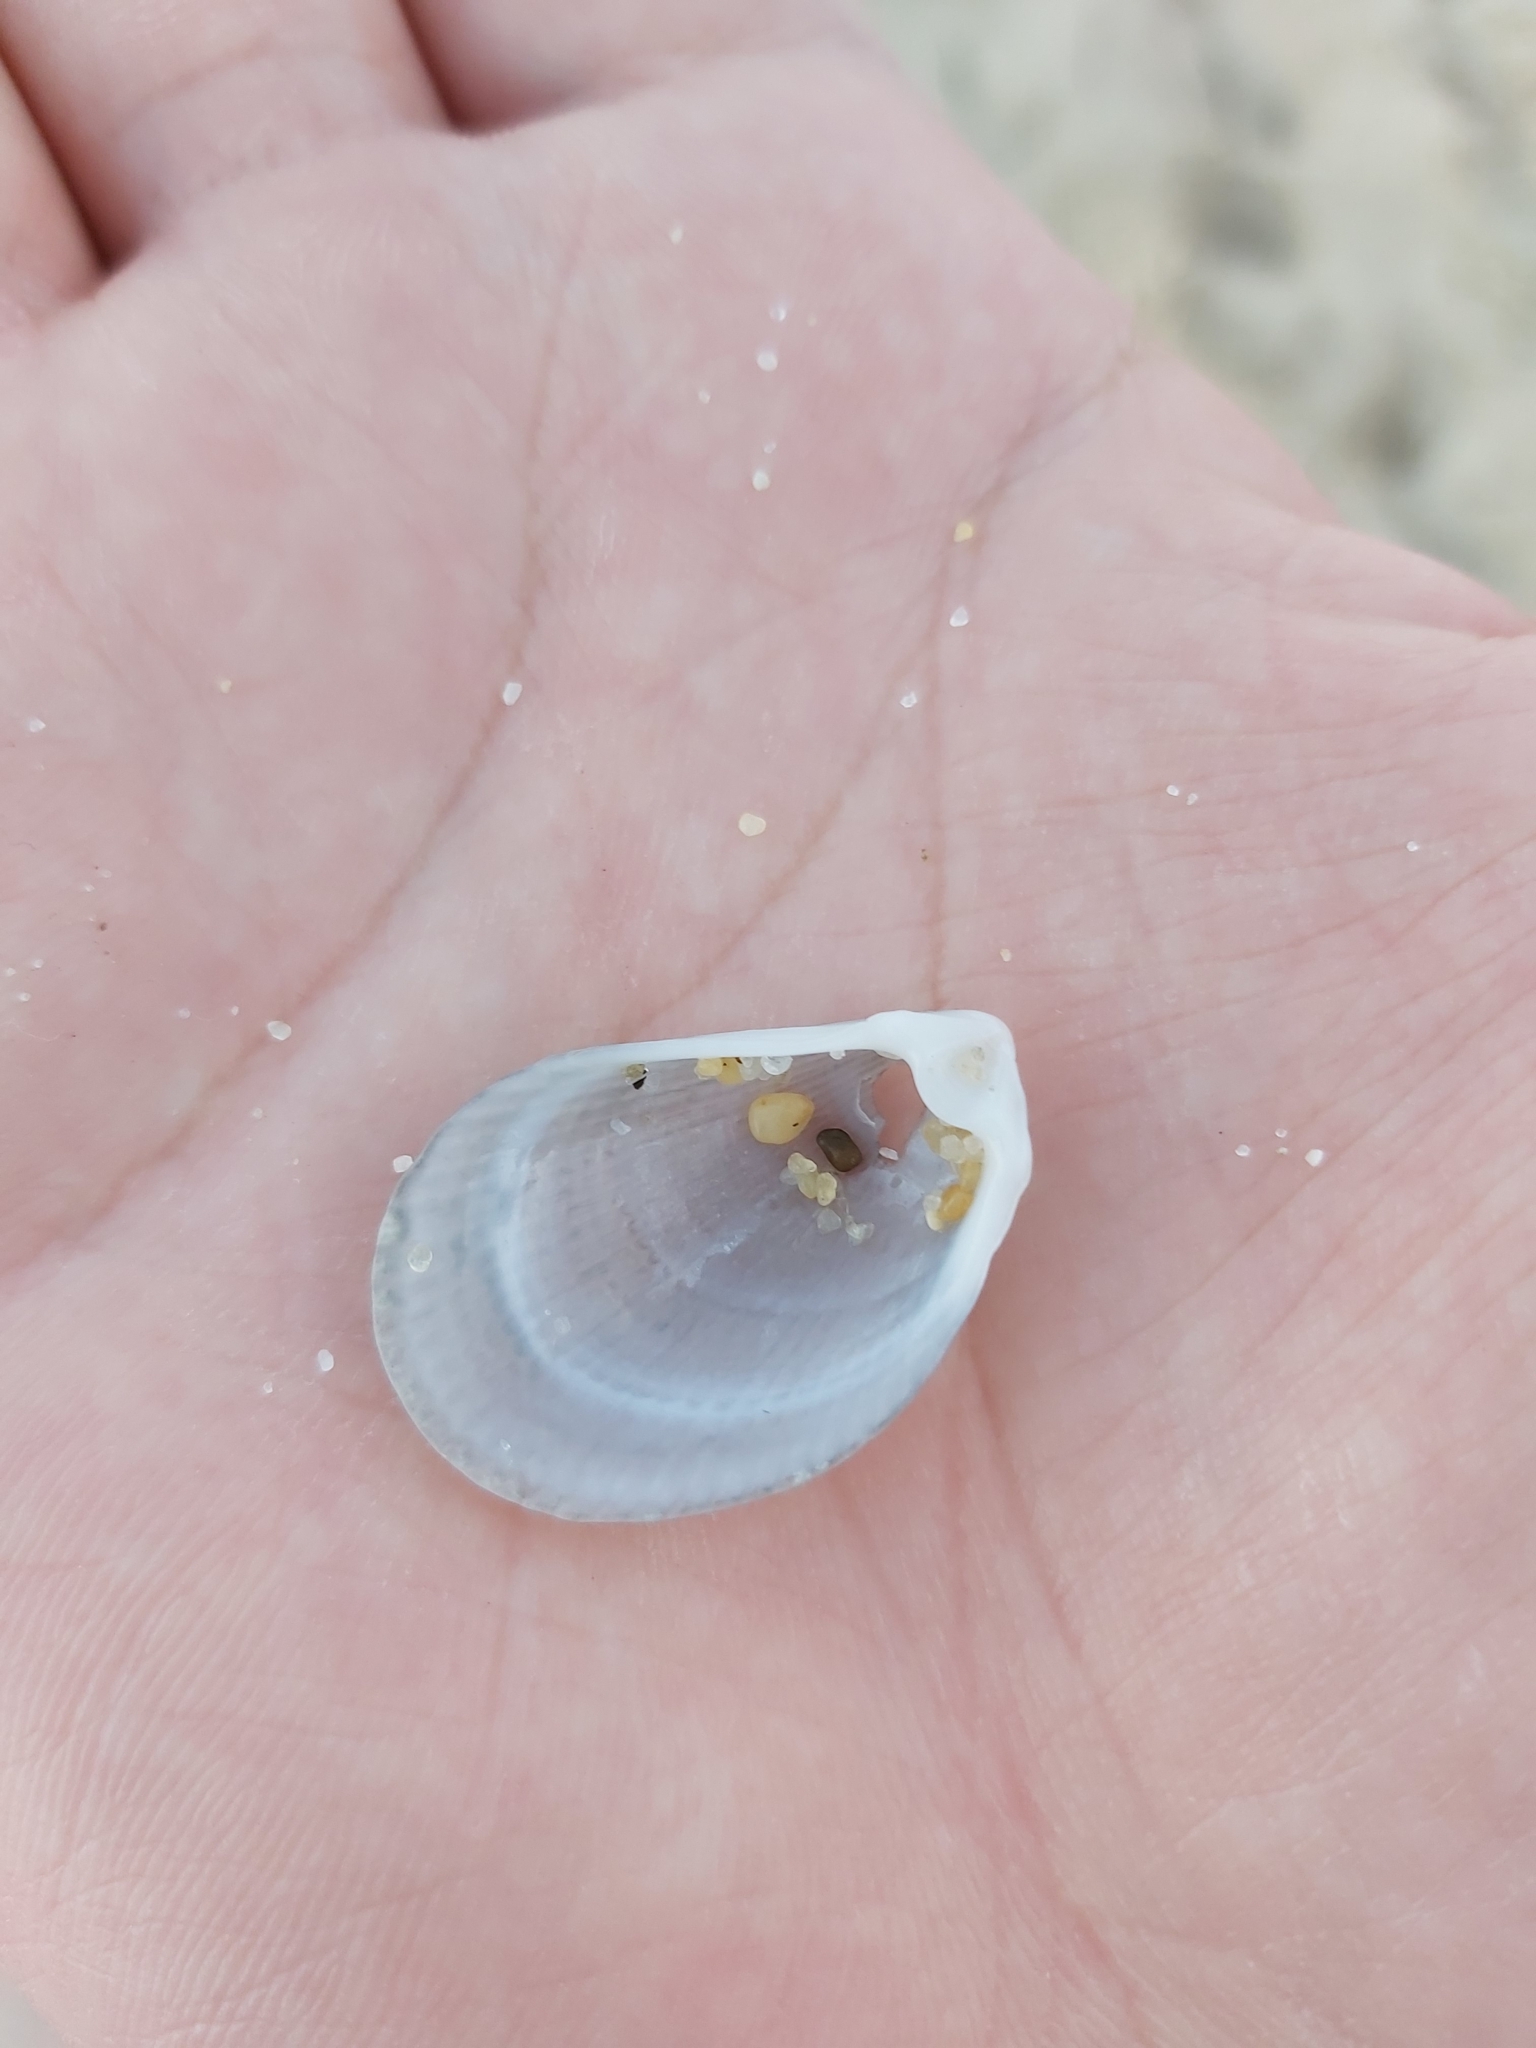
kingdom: Animalia
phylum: Mollusca
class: Bivalvia
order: Limida
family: Limidae
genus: Lima
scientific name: Lima nimbifer
